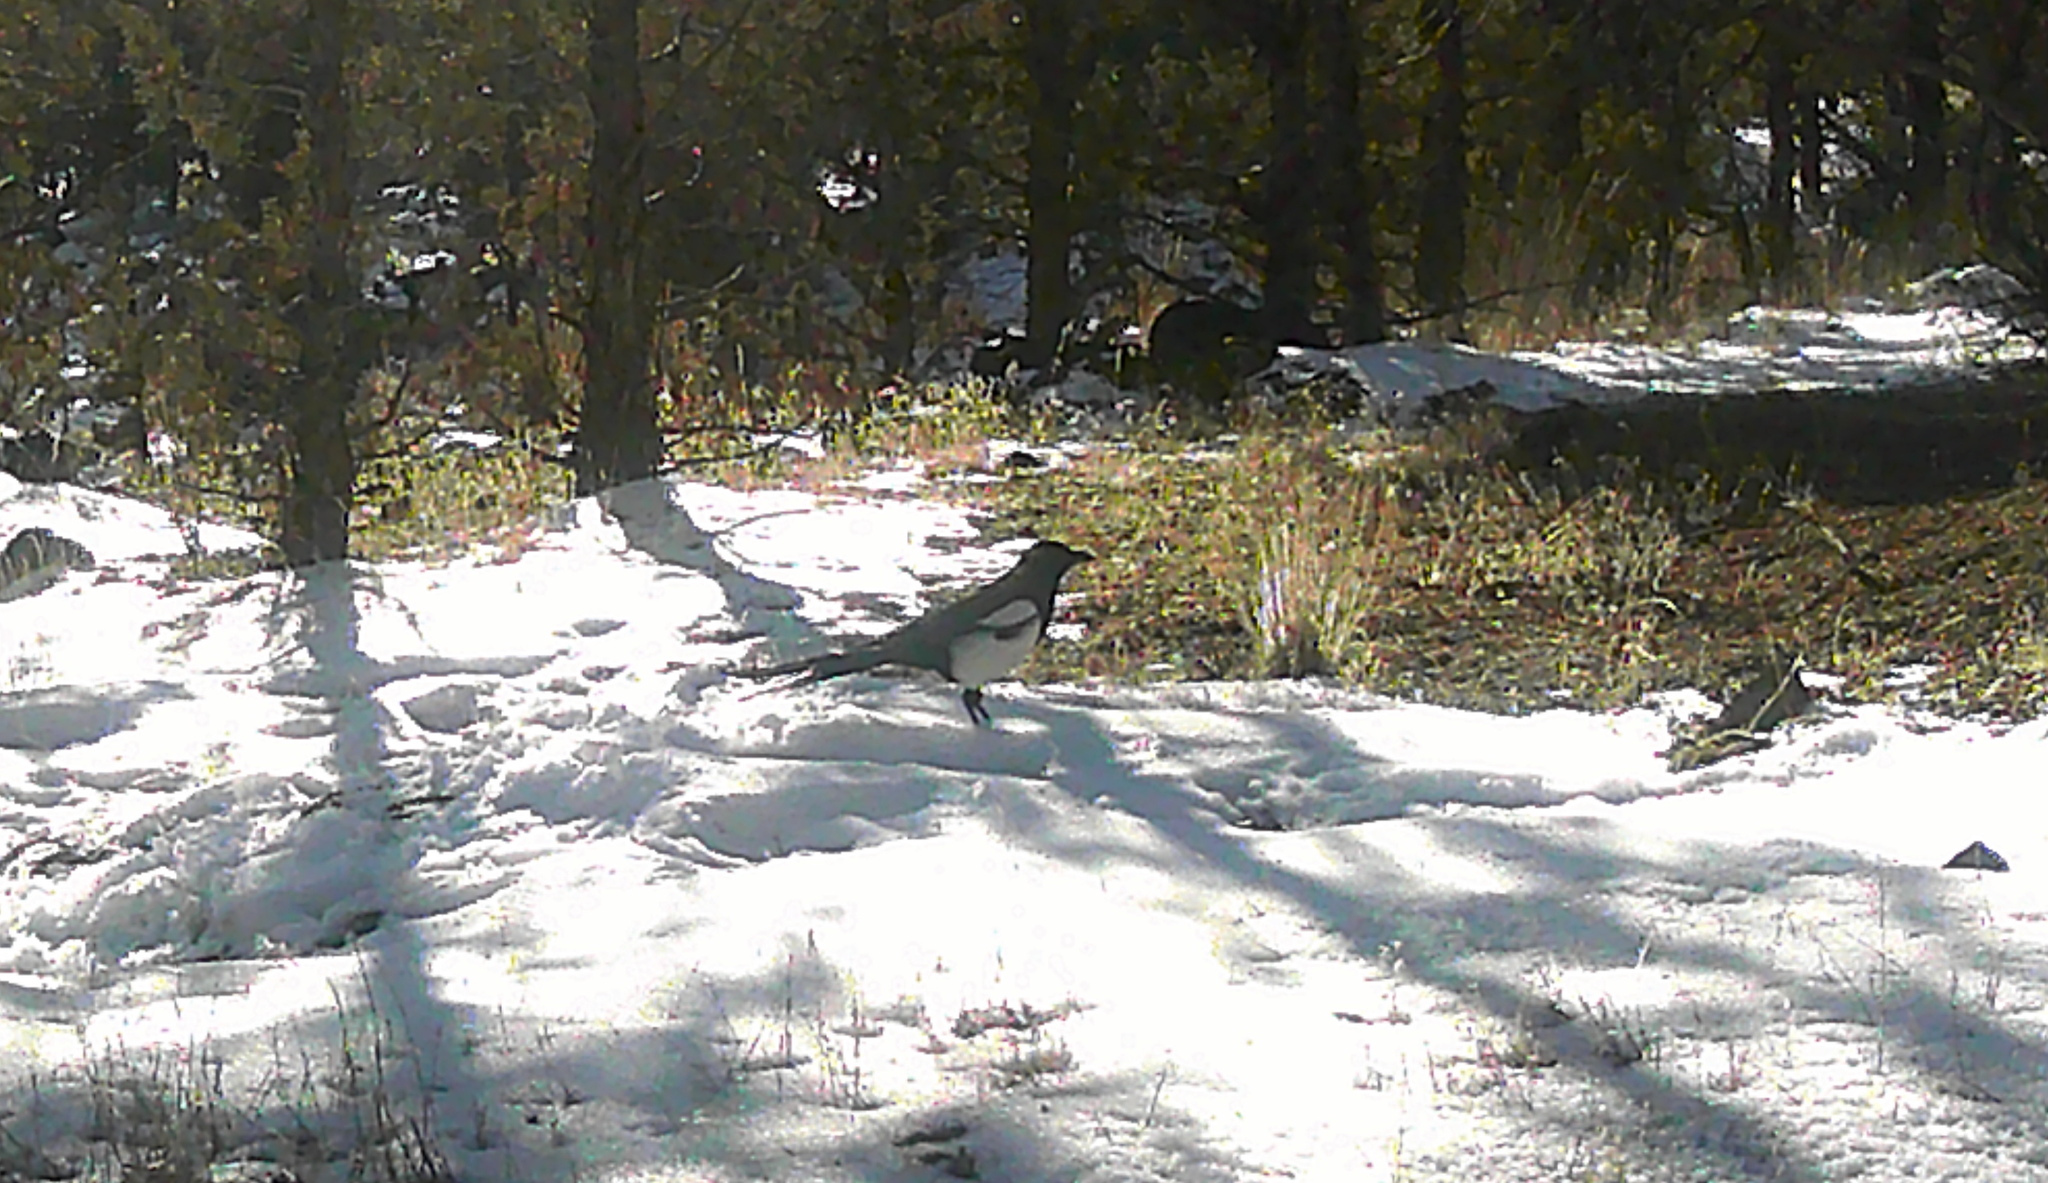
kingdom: Animalia
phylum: Chordata
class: Aves
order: Passeriformes
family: Corvidae
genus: Pica
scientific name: Pica hudsonia
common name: Black-billed magpie
